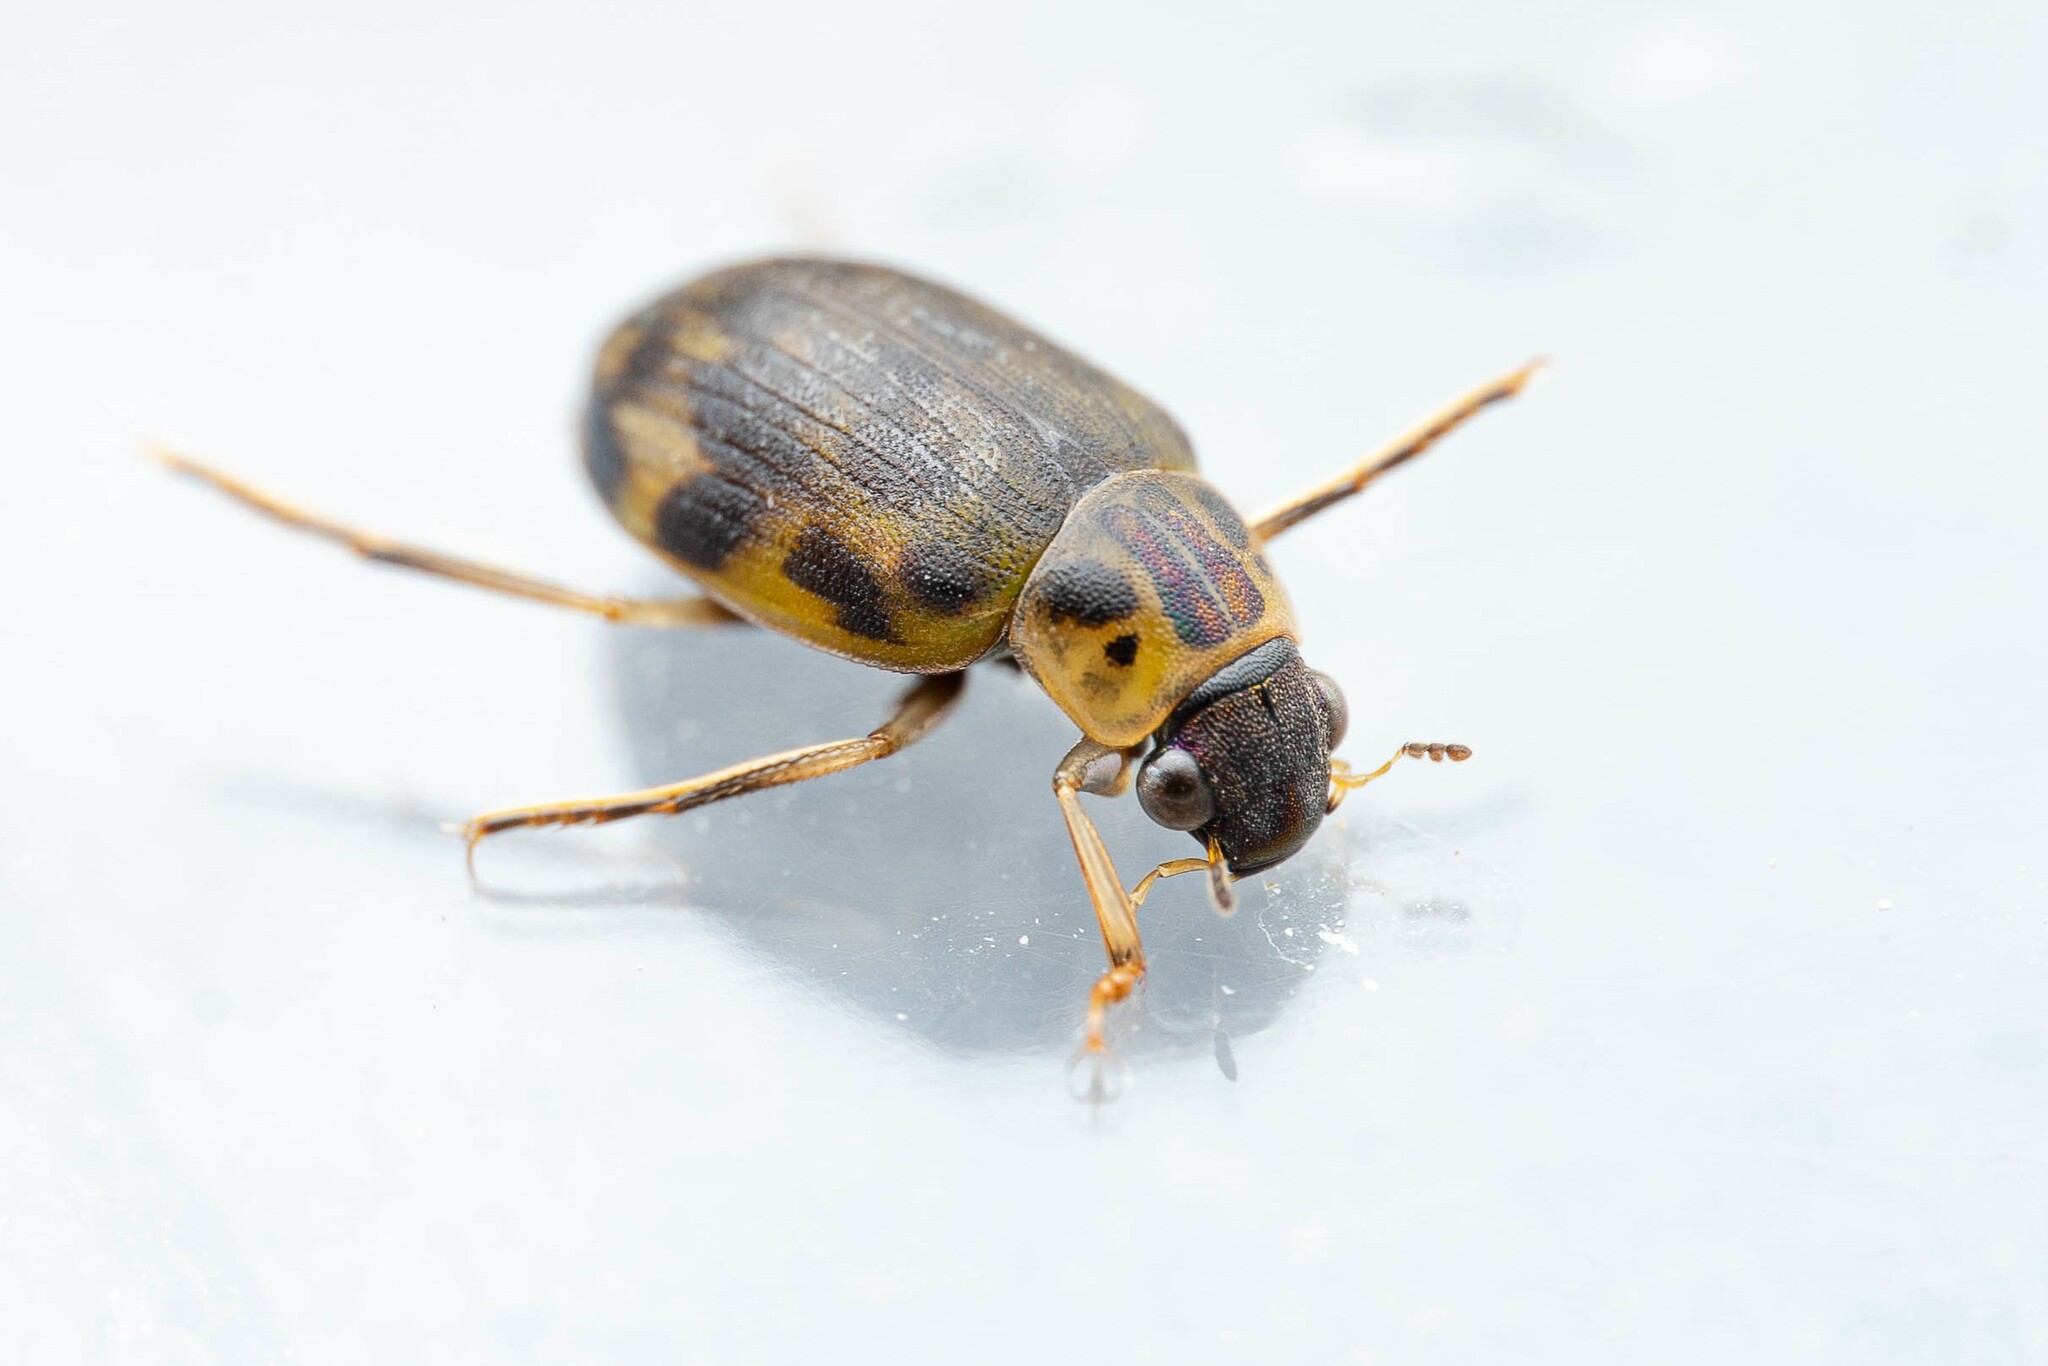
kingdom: Animalia
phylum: Arthropoda
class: Insecta
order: Coleoptera
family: Hydrophilidae
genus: Berosus
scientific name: Berosus
